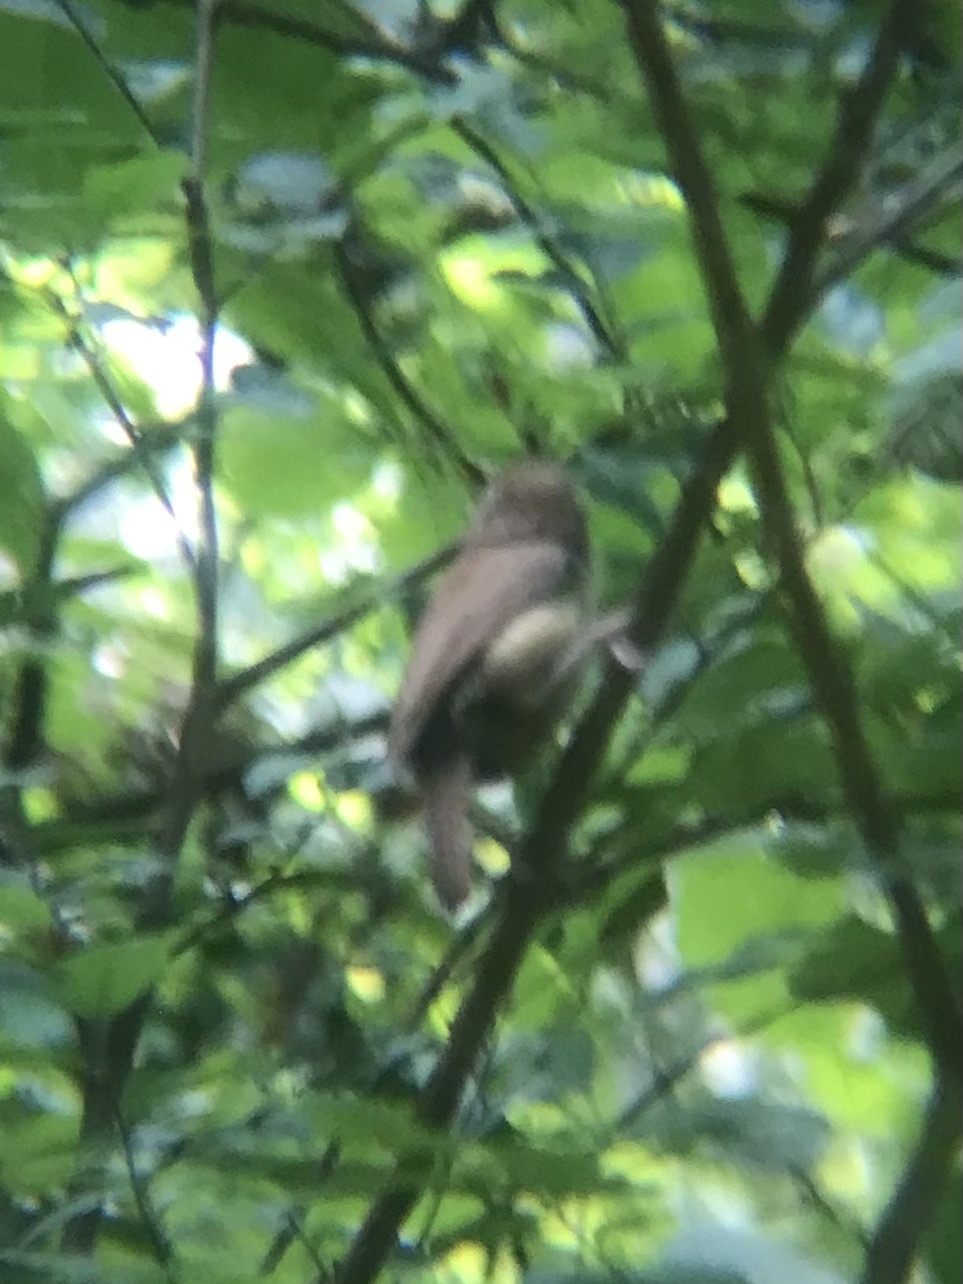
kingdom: Animalia
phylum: Chordata
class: Aves
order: Passeriformes
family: Troglodytidae
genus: Thryothorus
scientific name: Thryothorus ludovicianus
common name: Carolina wren
